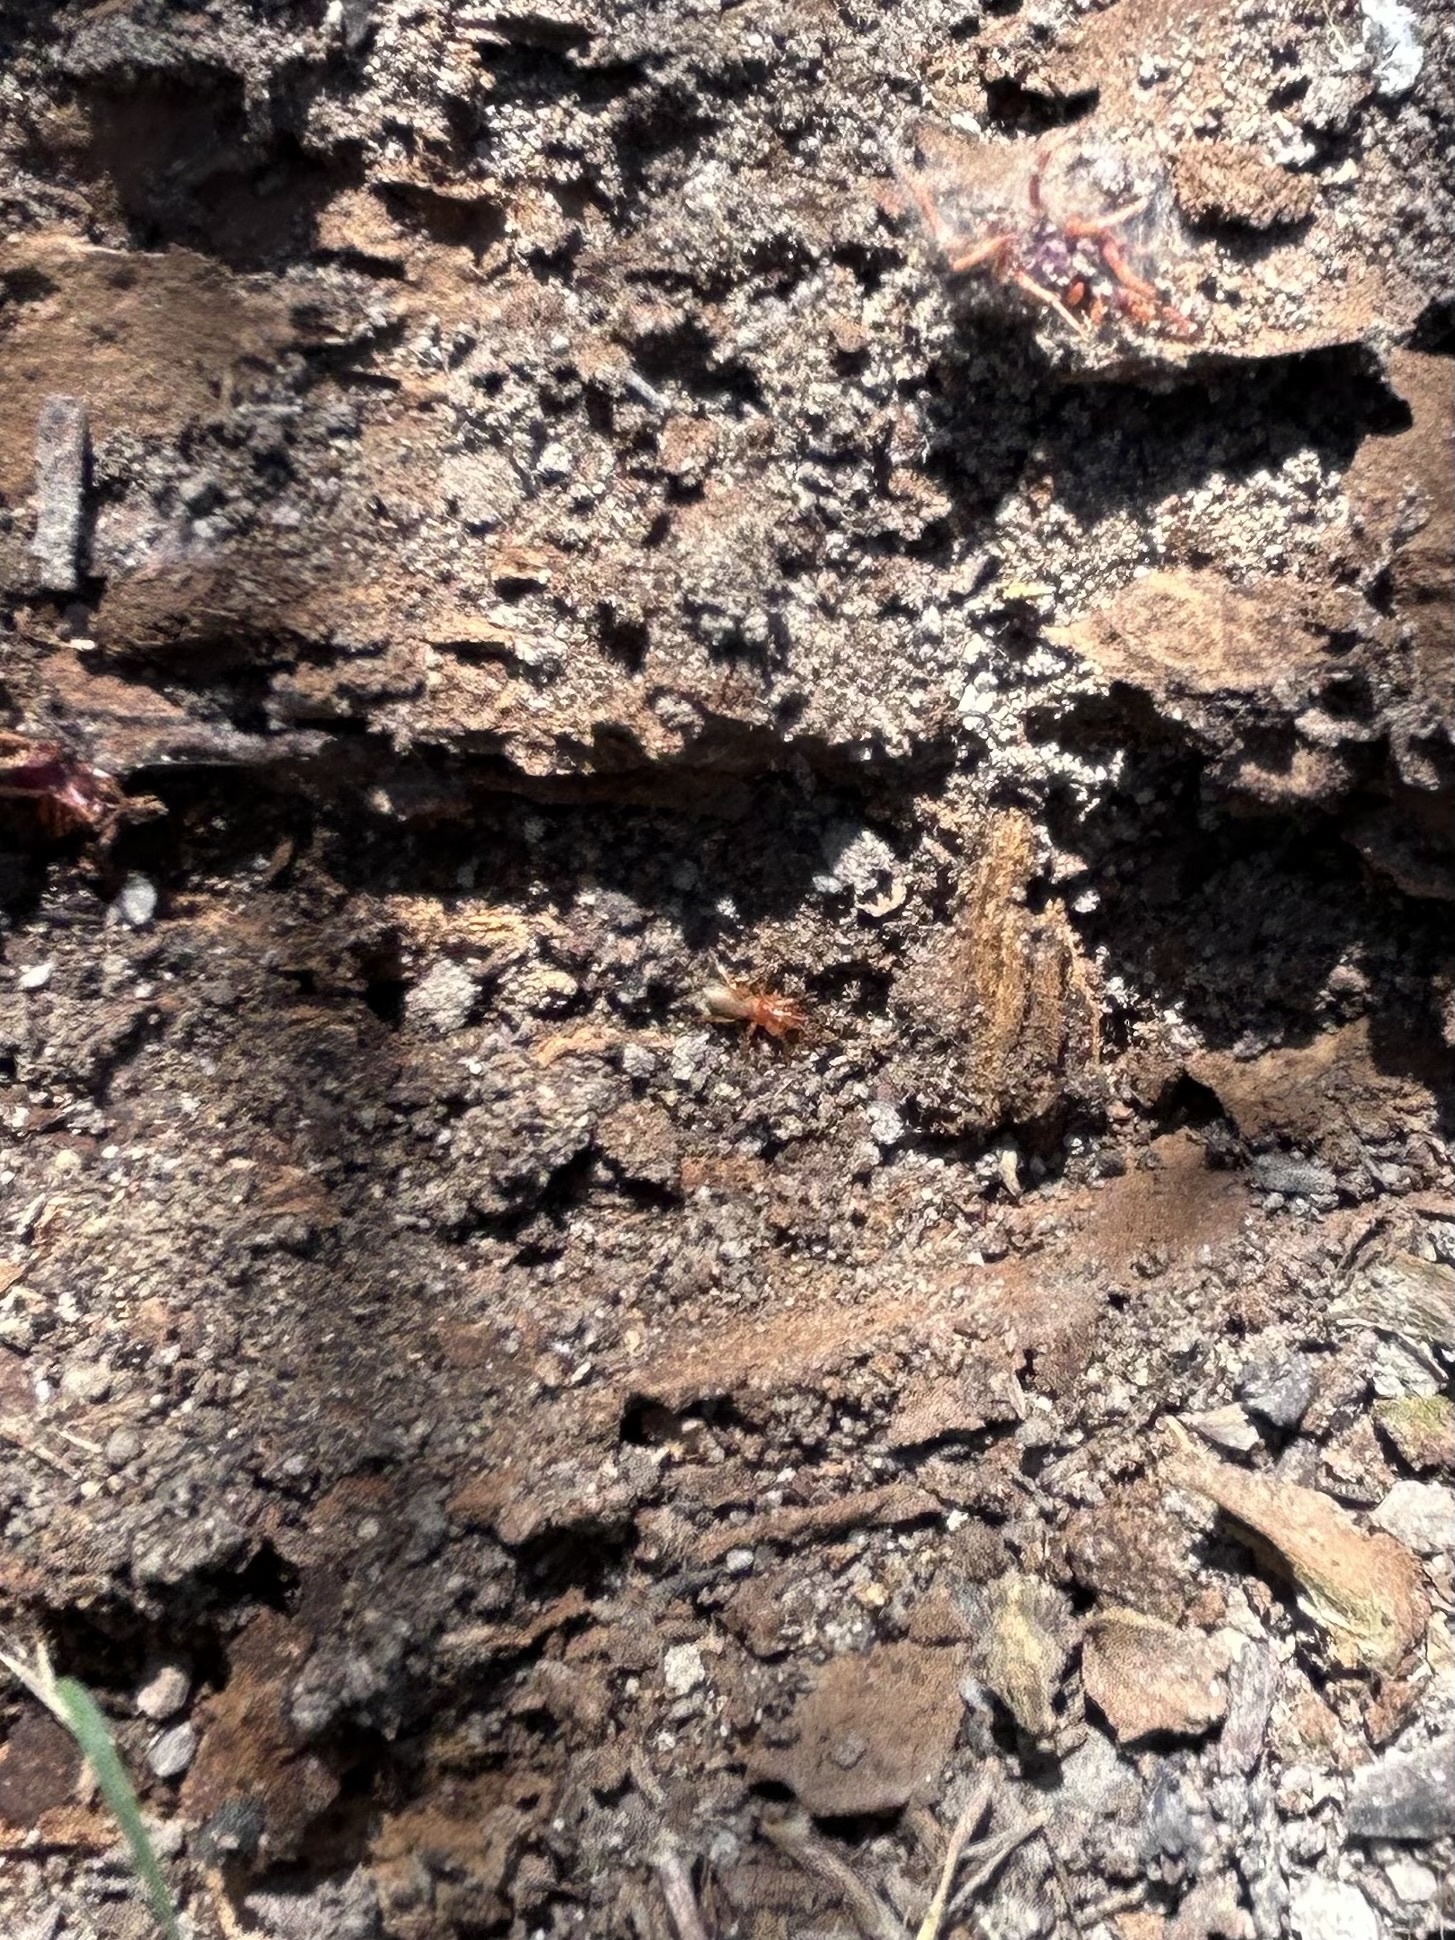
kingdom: Animalia
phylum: Arthropoda
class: Arachnida
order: Araneae
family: Dysderidae
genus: Dysdera
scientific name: Dysdera crocata
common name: Woodlouse spider
